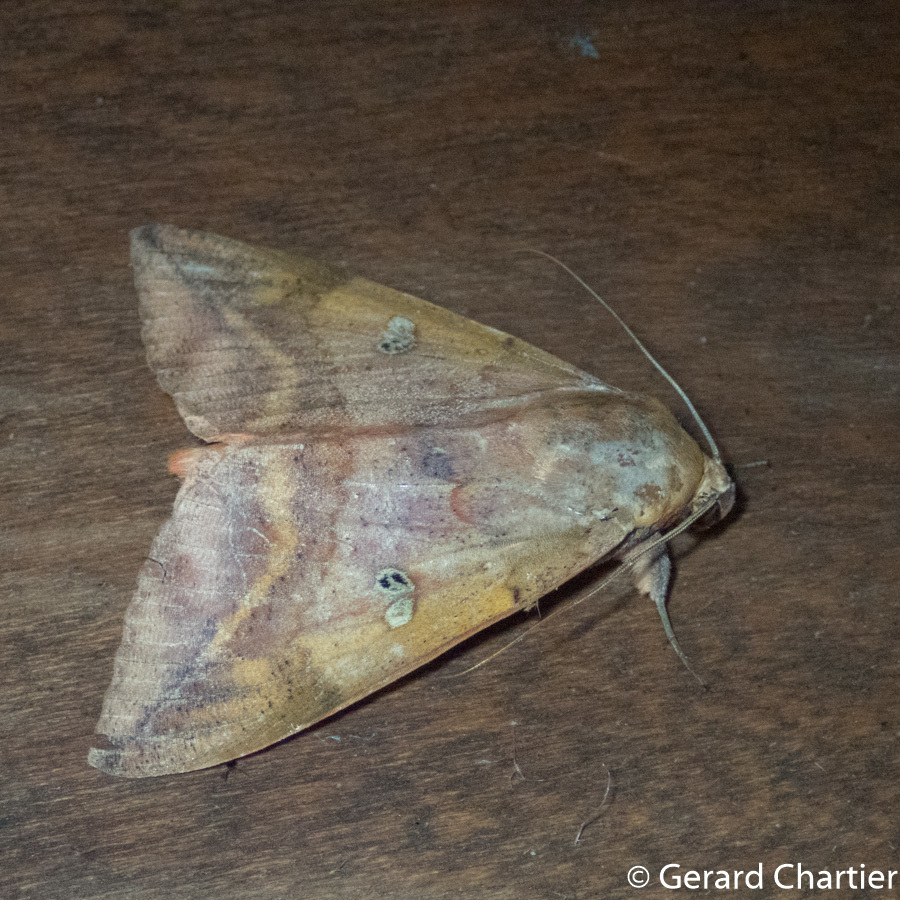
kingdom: Animalia
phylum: Arthropoda
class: Insecta
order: Lepidoptera
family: Erebidae
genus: Thyas
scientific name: Thyas honesta
